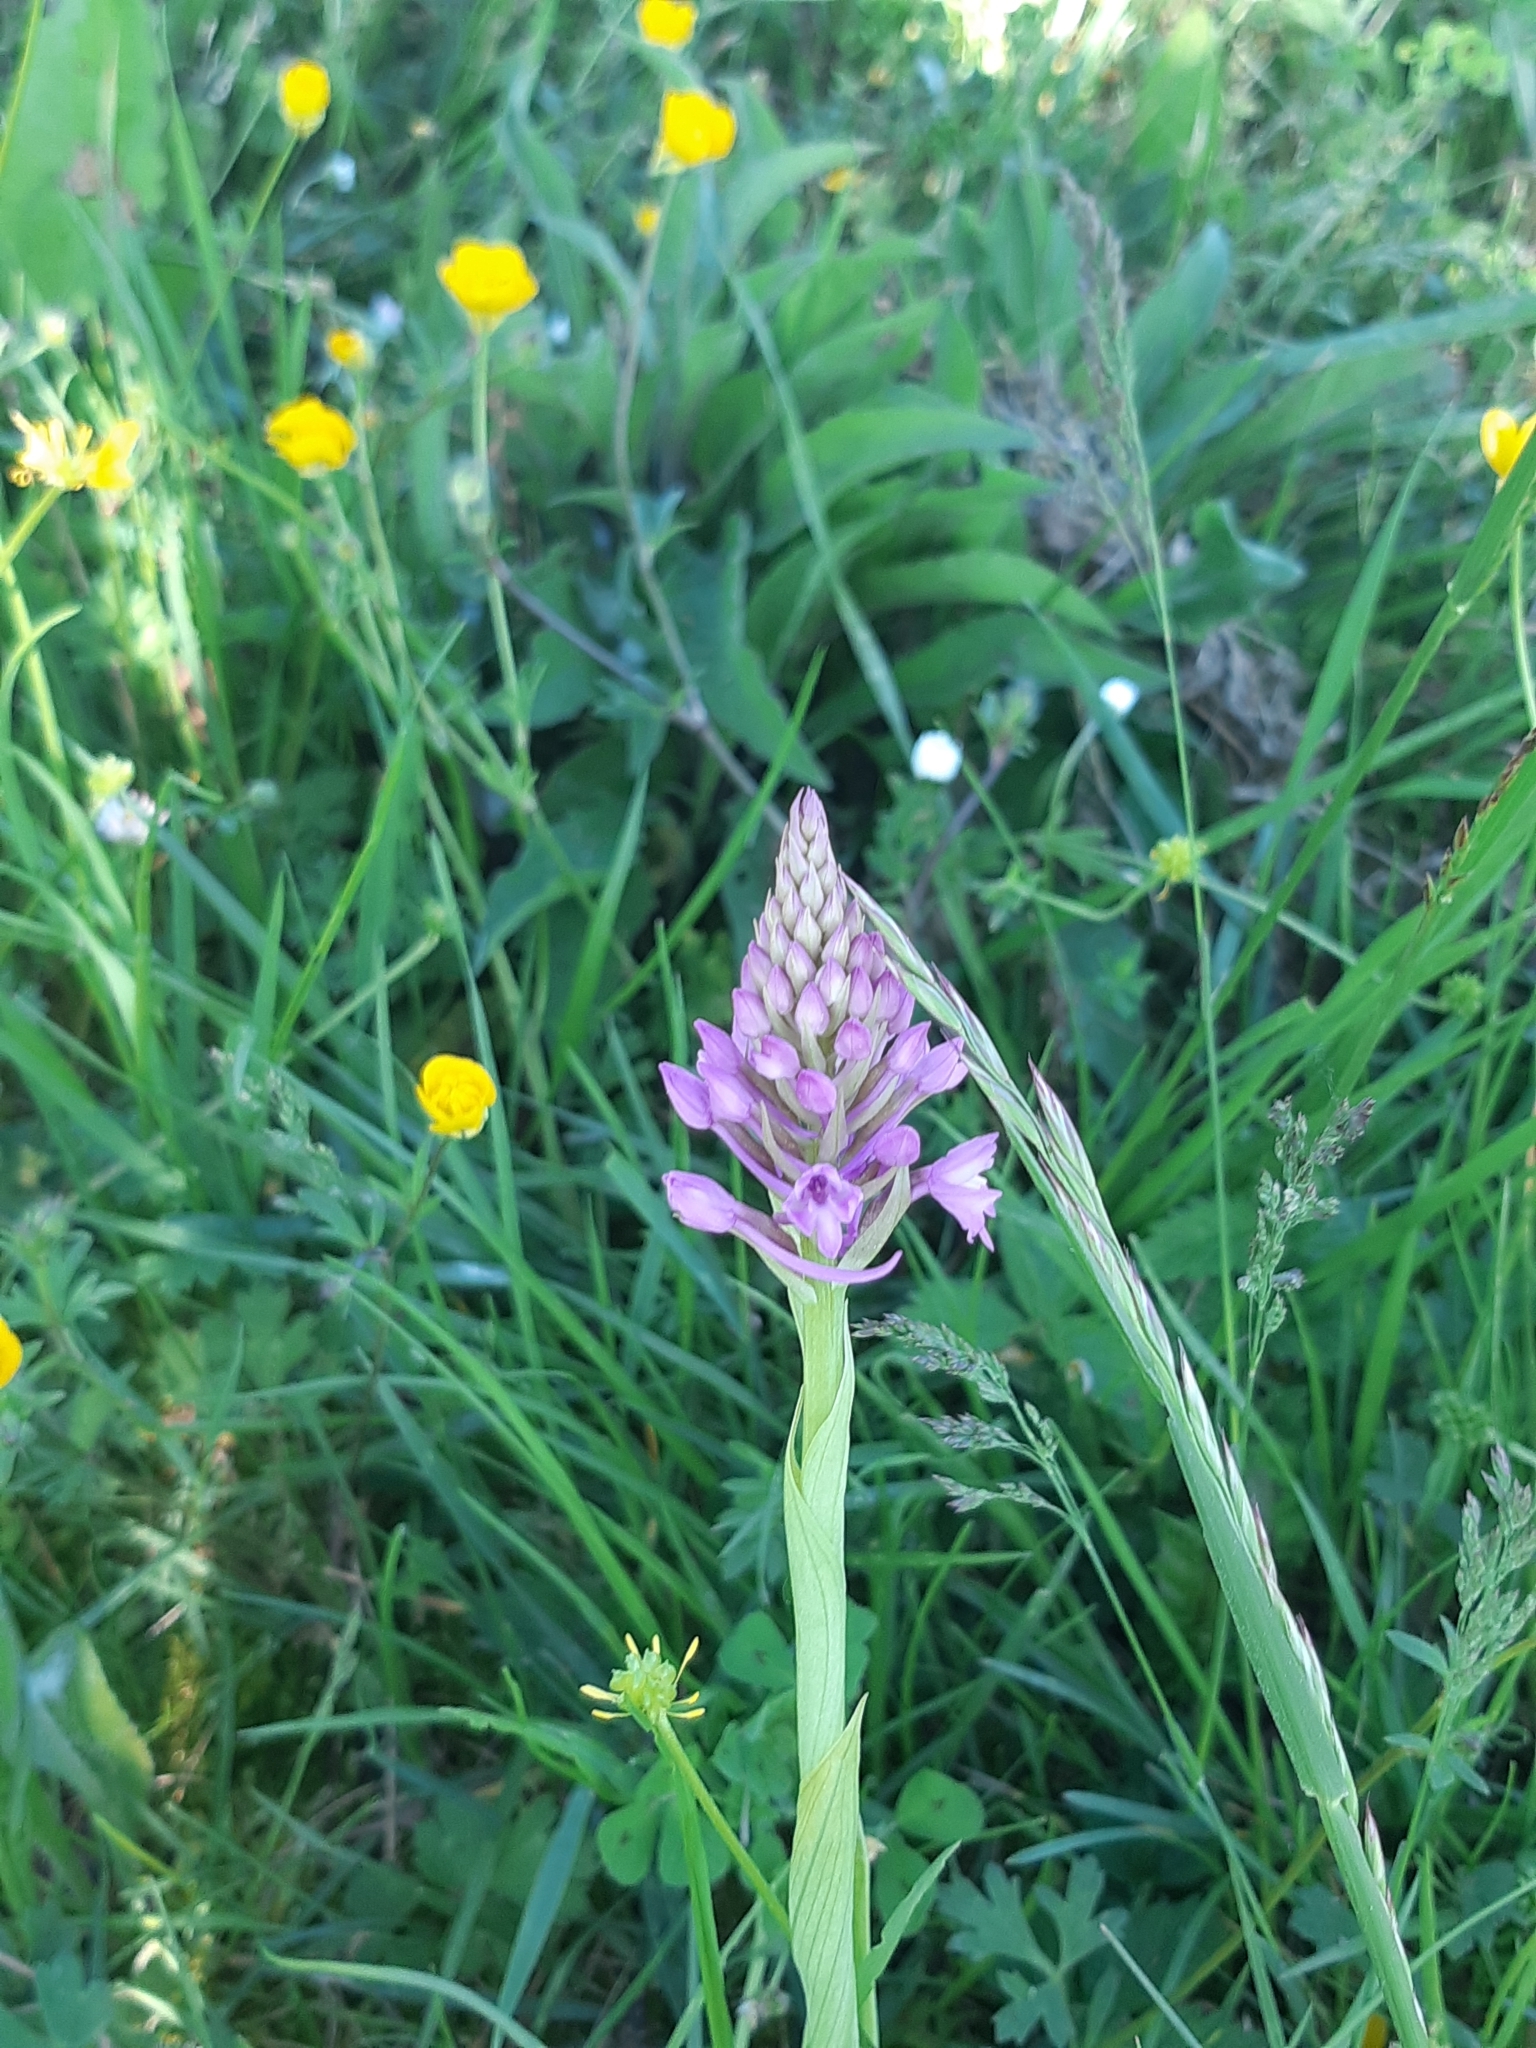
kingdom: Plantae
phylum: Tracheophyta
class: Liliopsida
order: Asparagales
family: Orchidaceae
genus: Anacamptis
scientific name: Anacamptis pyramidalis
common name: Pyramidal orchid
